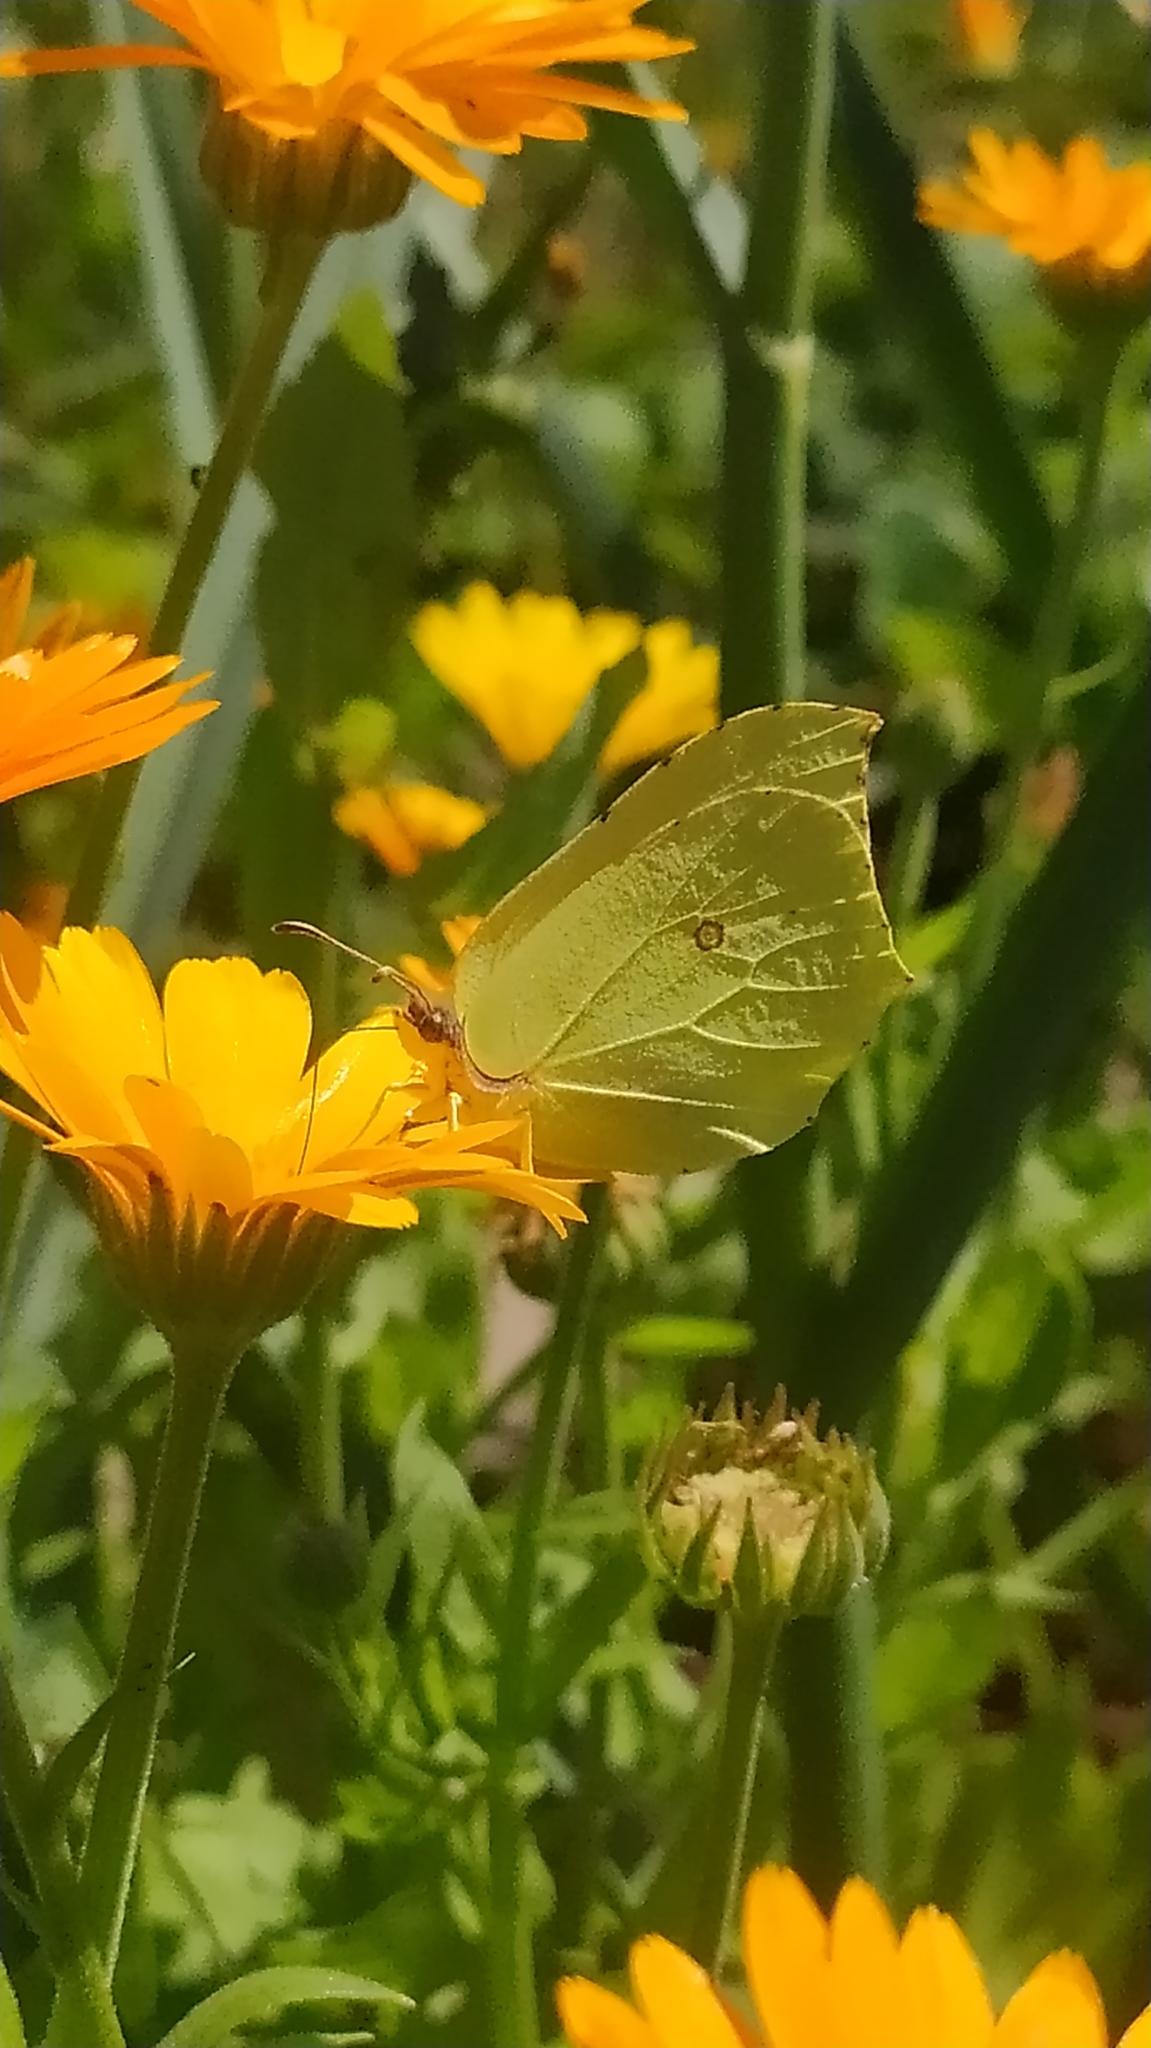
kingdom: Animalia
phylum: Arthropoda
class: Insecta
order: Lepidoptera
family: Pieridae
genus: Gonepteryx
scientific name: Gonepteryx rhamni
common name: Brimstone
